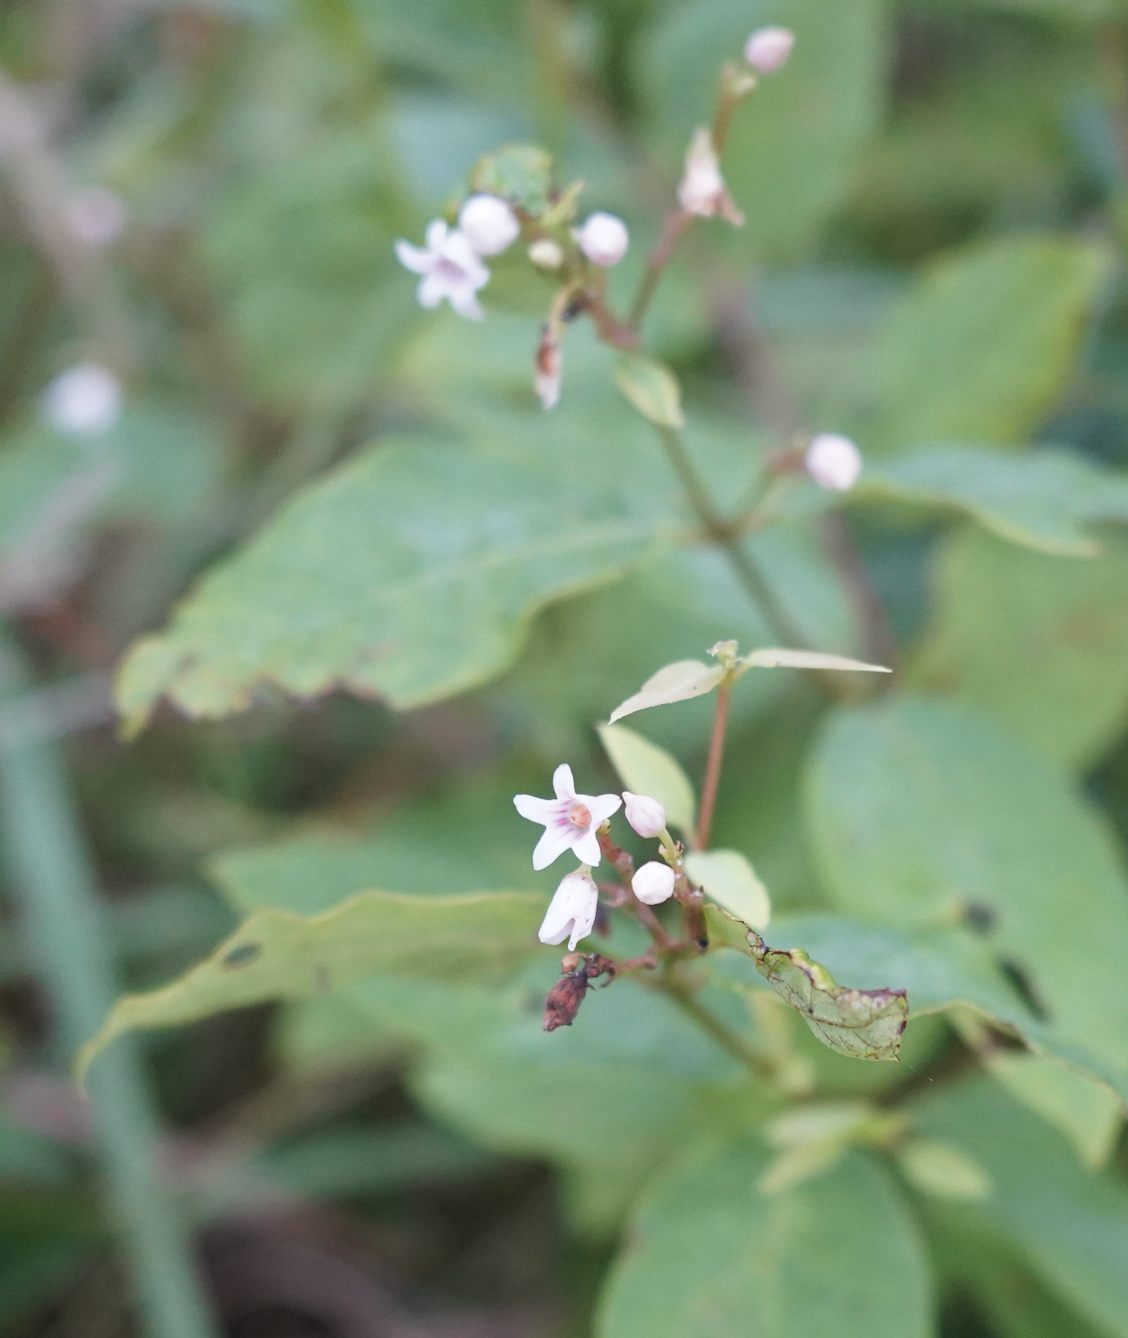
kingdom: Plantae
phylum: Tracheophyta
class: Magnoliopsida
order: Gentianales
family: Apocynaceae
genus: Apocynum
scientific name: Apocynum androsaemifolium
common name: Spreading dogbane
